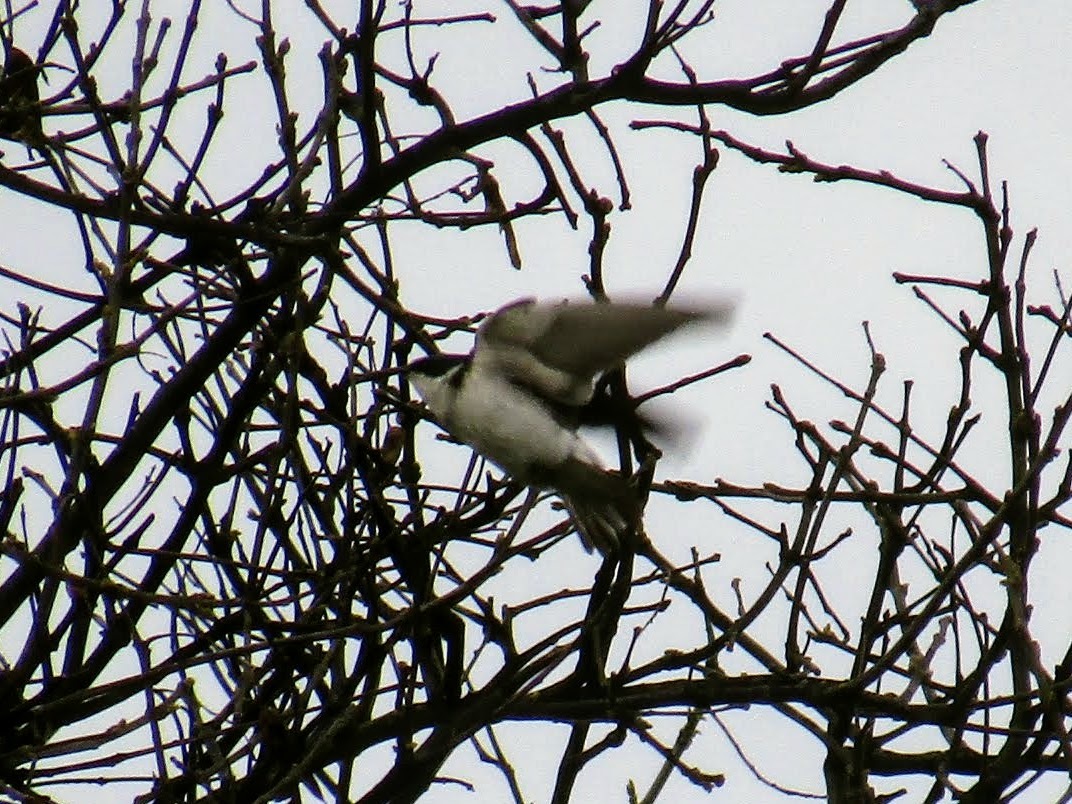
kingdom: Animalia
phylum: Chordata
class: Aves
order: Passeriformes
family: Hirundinidae
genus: Tachycineta
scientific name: Tachycineta leucorrhoa
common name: White-rumped swallow
